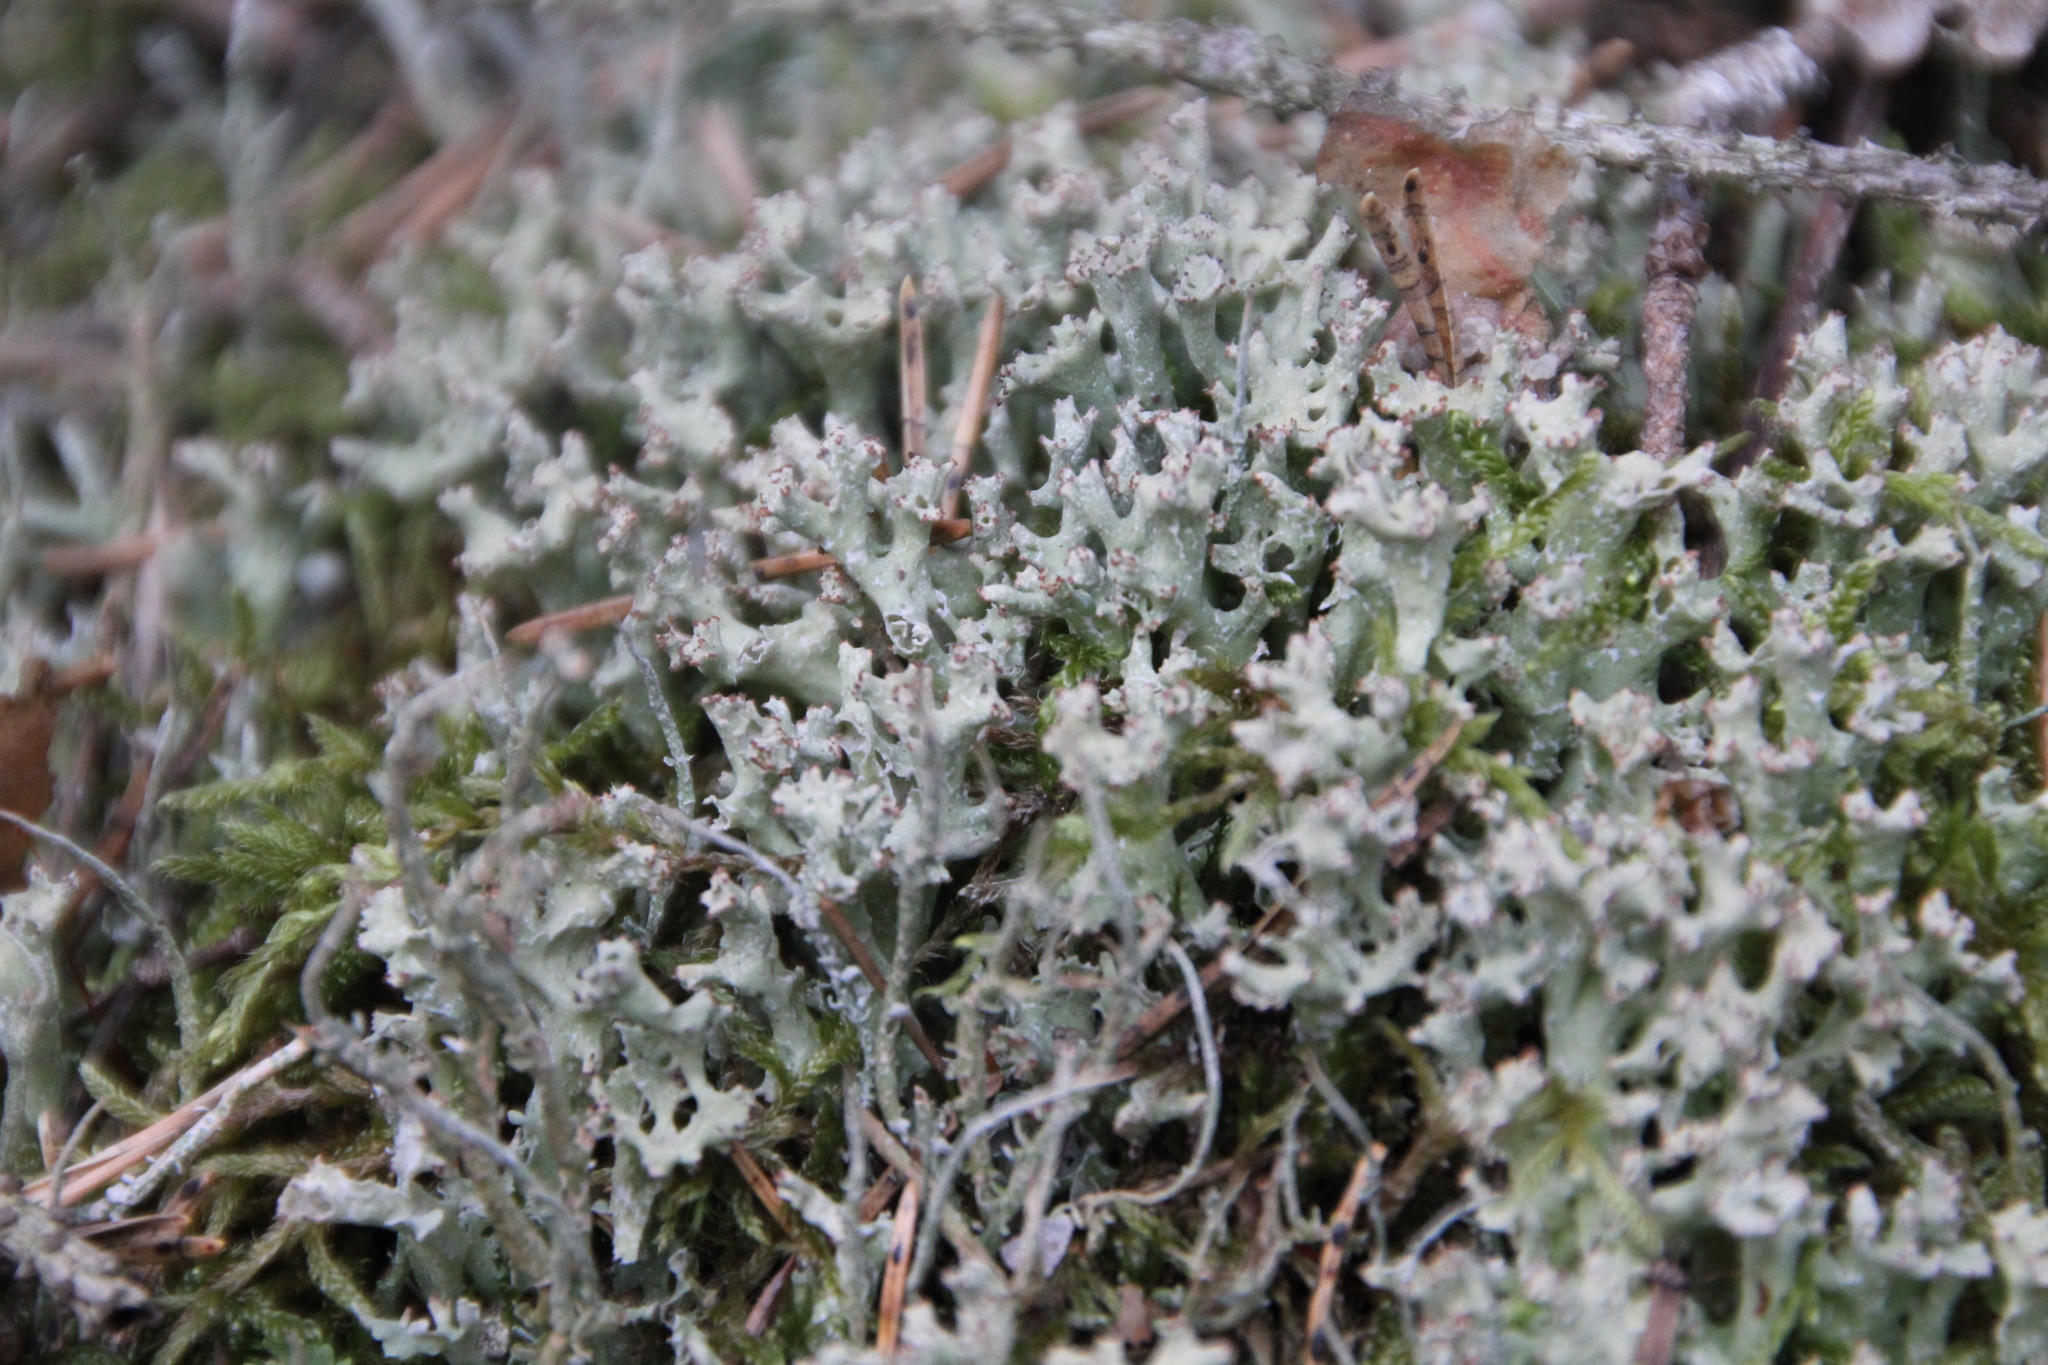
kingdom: Fungi
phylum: Ascomycota
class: Lecanoromycetes
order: Lecanorales
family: Cladoniaceae
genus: Cladonia
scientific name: Cladonia turgida
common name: Crazy scale lichen
